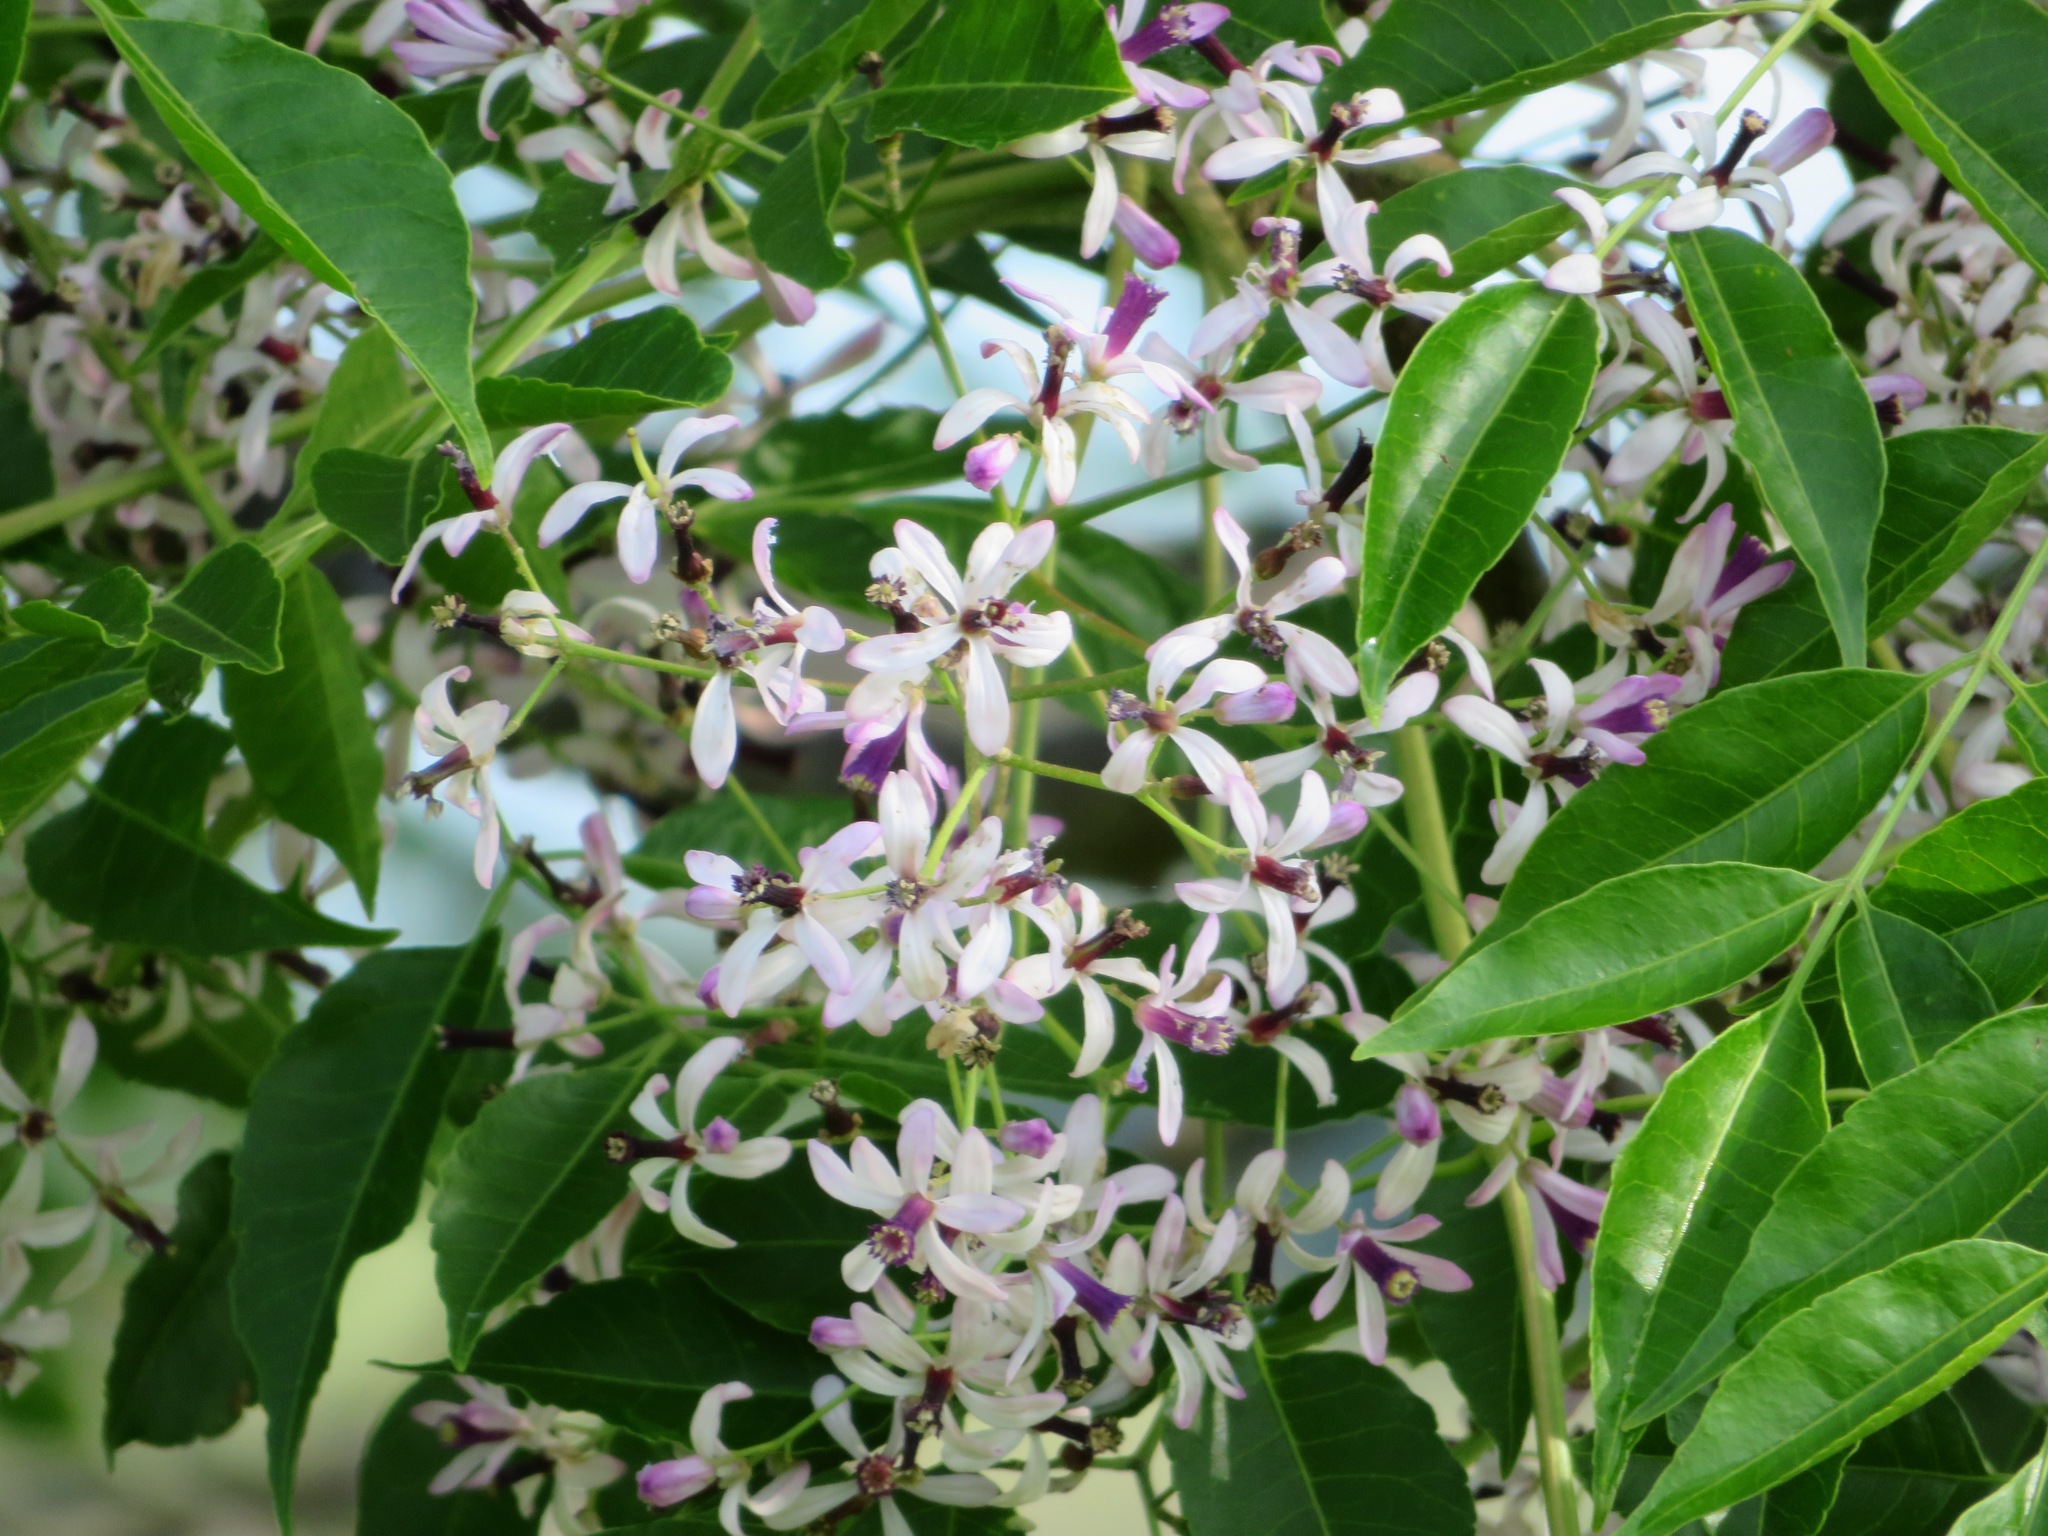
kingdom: Plantae
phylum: Tracheophyta
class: Magnoliopsida
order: Sapindales
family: Meliaceae
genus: Melia
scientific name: Melia azedarach
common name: Chinaberrytree
